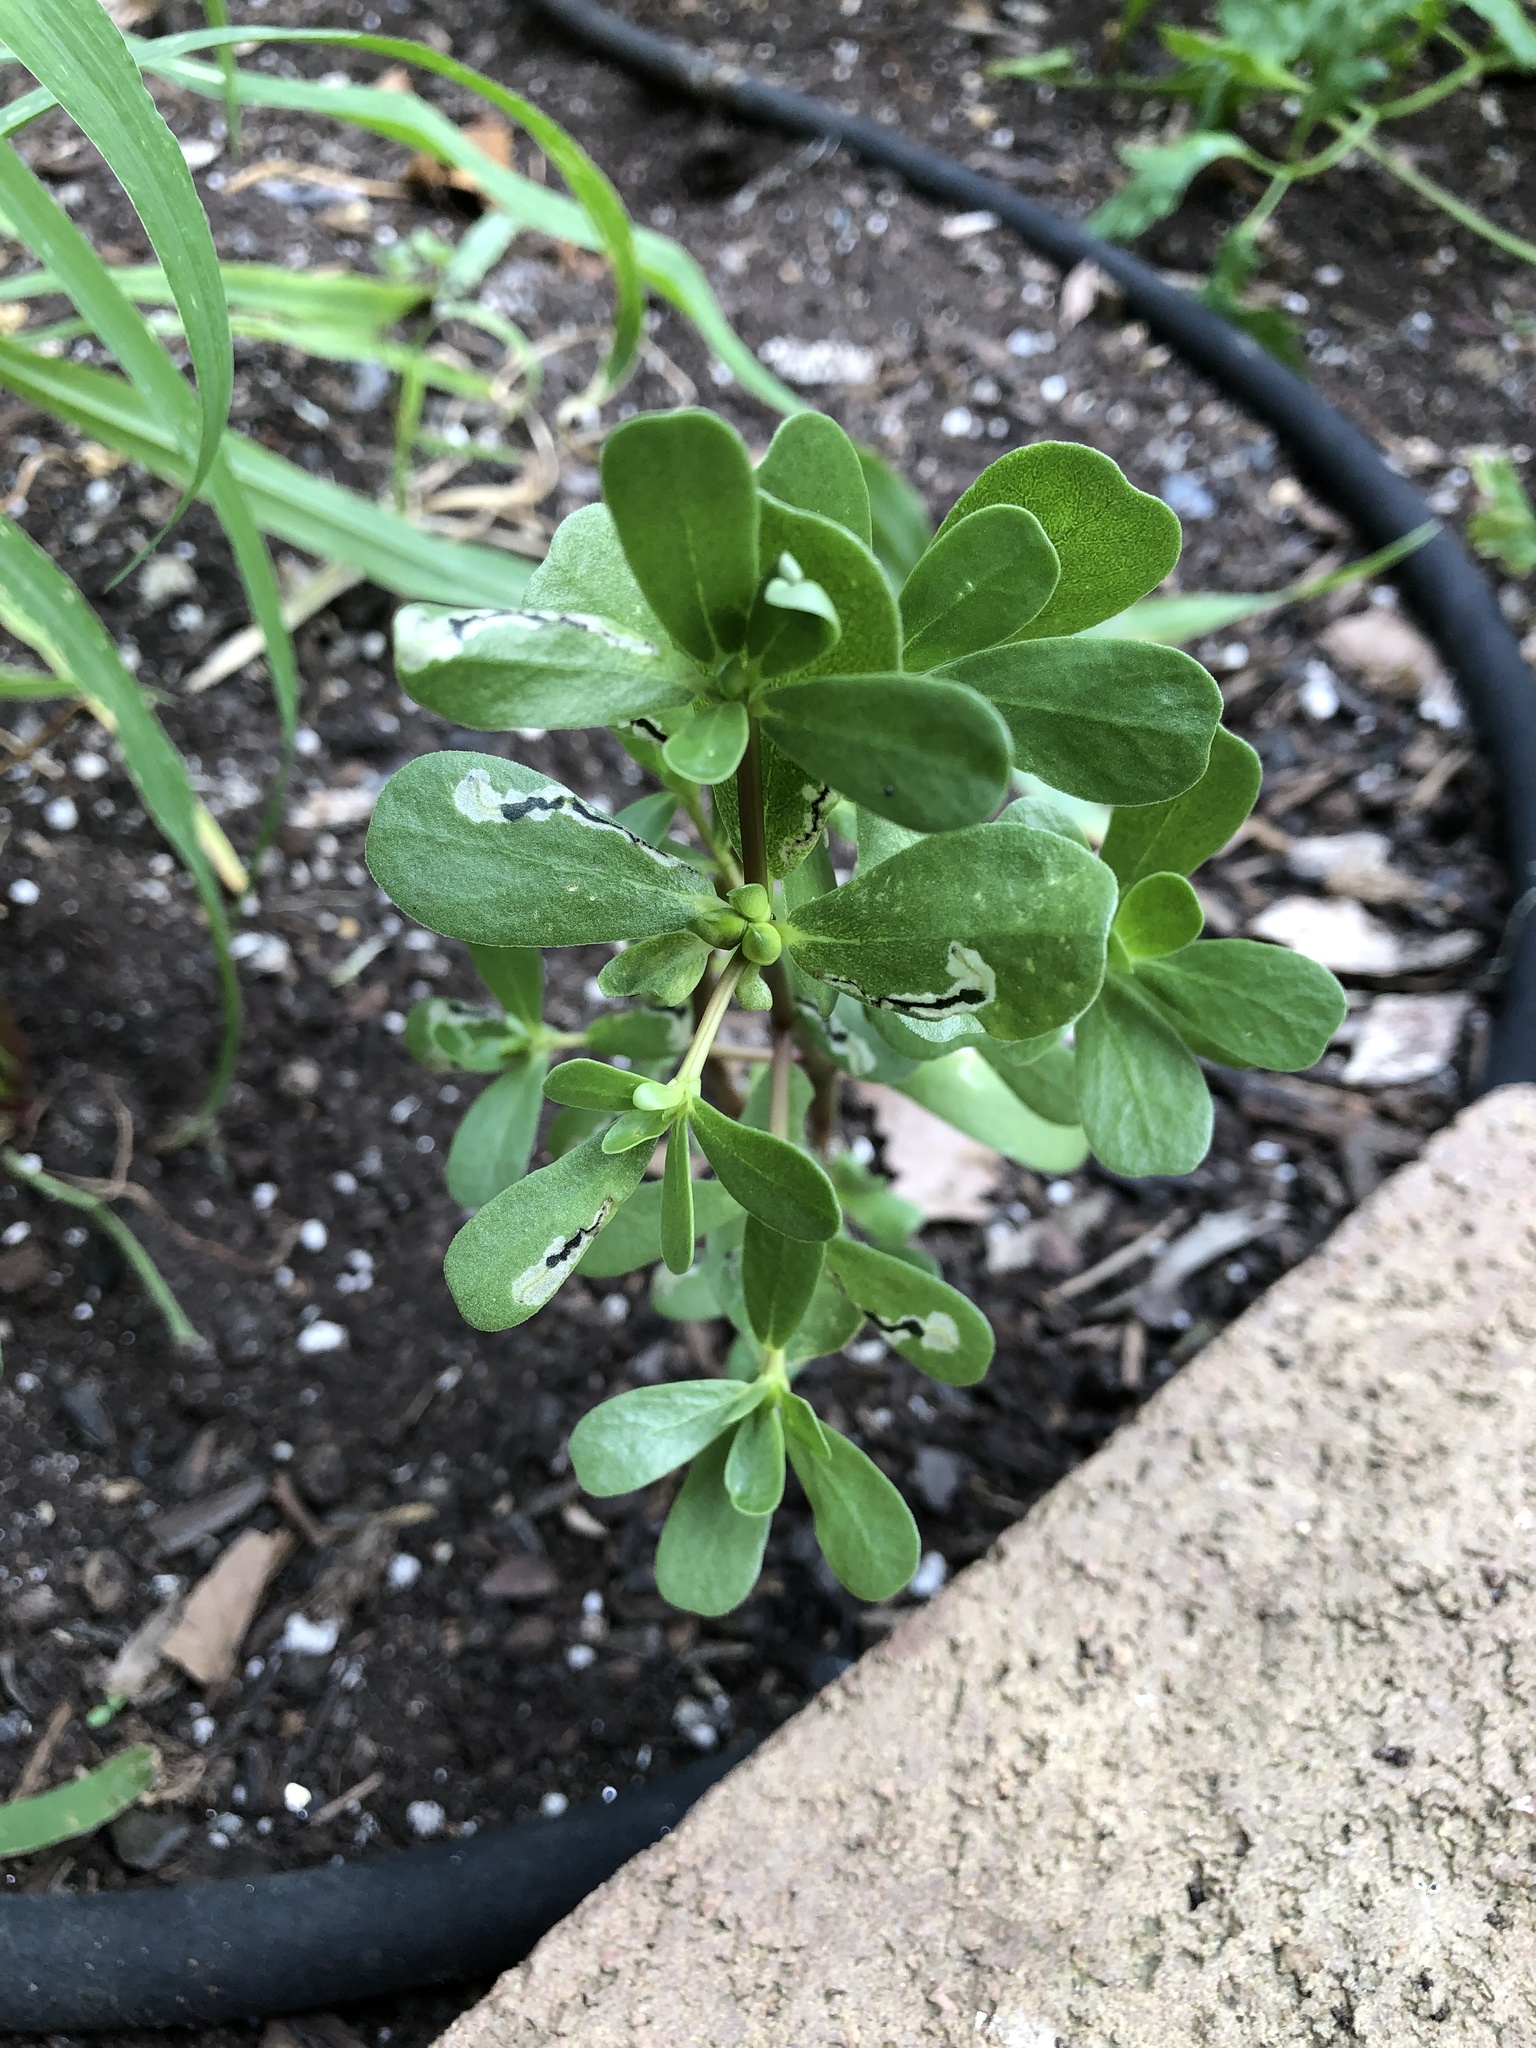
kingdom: Plantae
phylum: Tracheophyta
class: Magnoliopsida
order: Caryophyllales
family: Portulacaceae
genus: Portulaca
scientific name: Portulaca oleracea
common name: Common purslane
